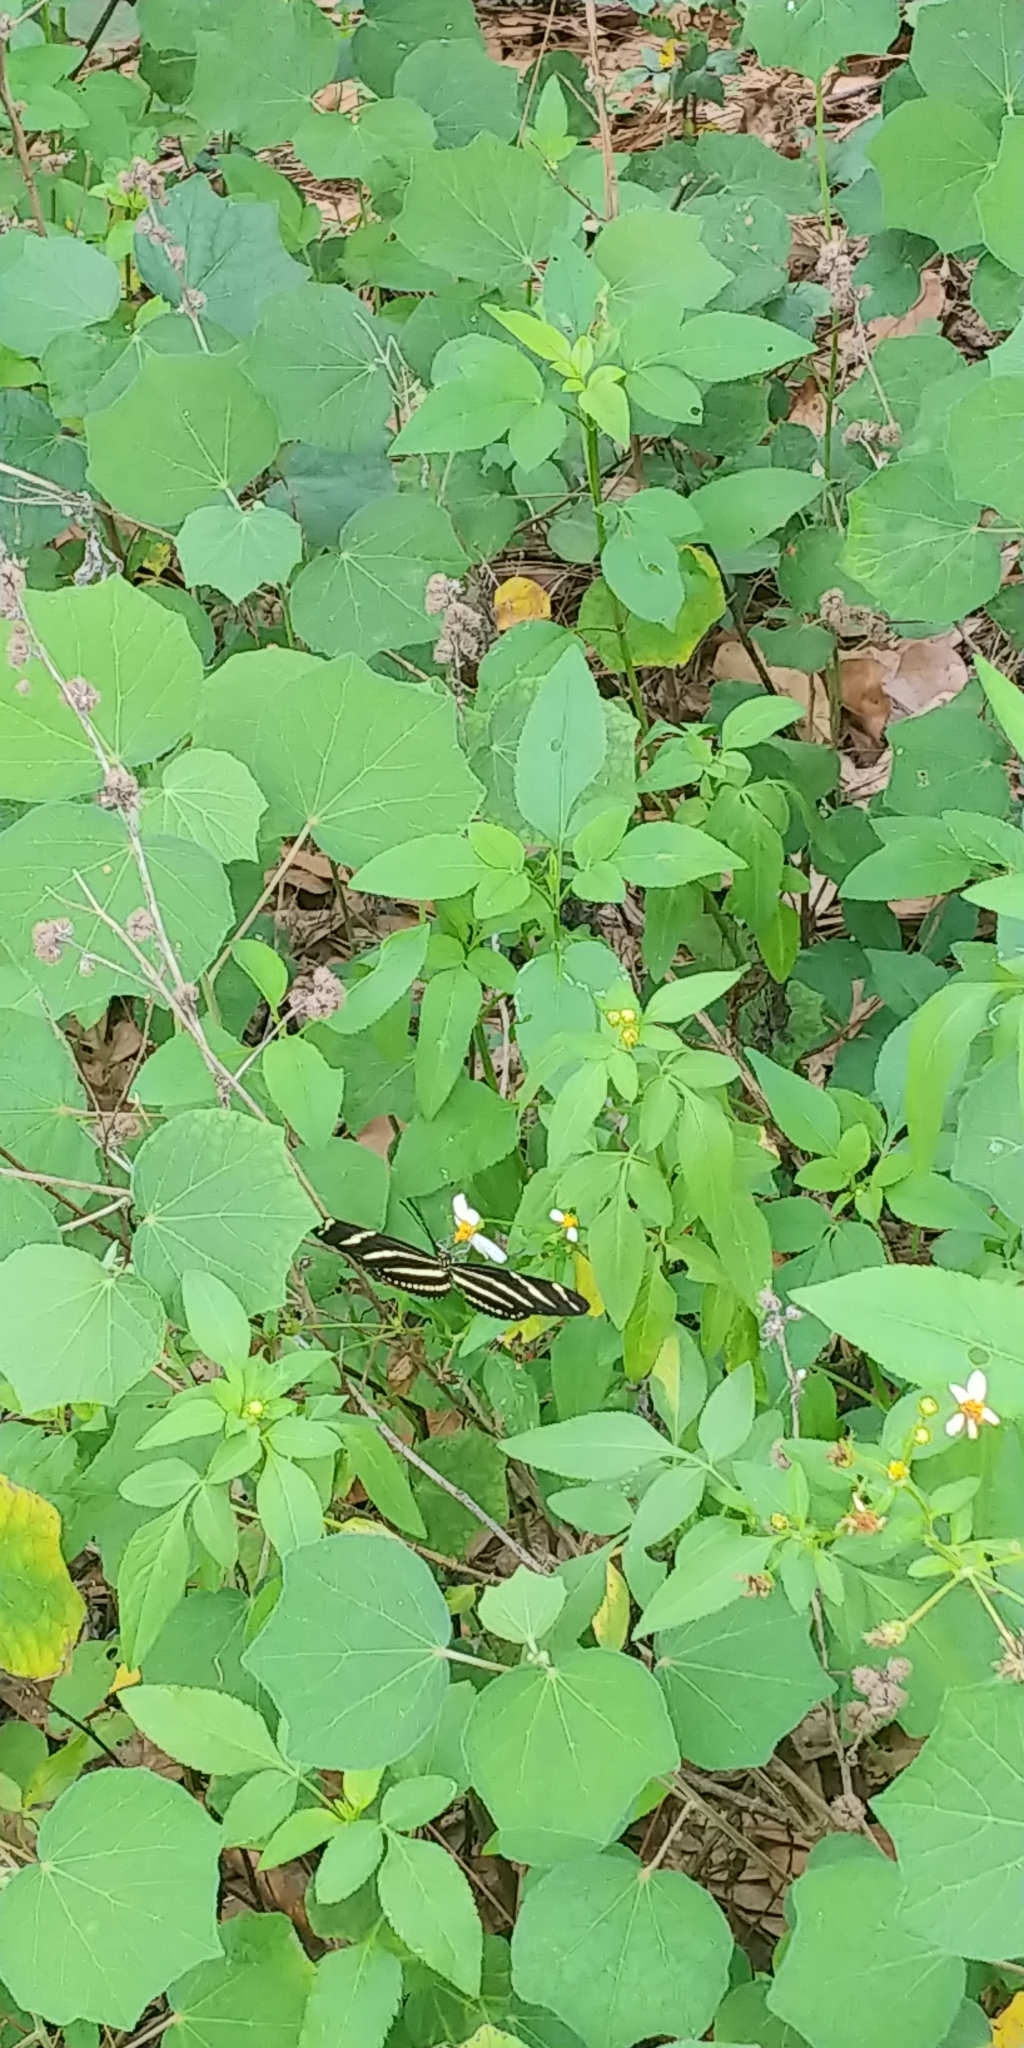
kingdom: Animalia
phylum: Arthropoda
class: Insecta
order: Lepidoptera
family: Nymphalidae
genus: Heliconius
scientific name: Heliconius charithonia
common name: Zebra long wing
